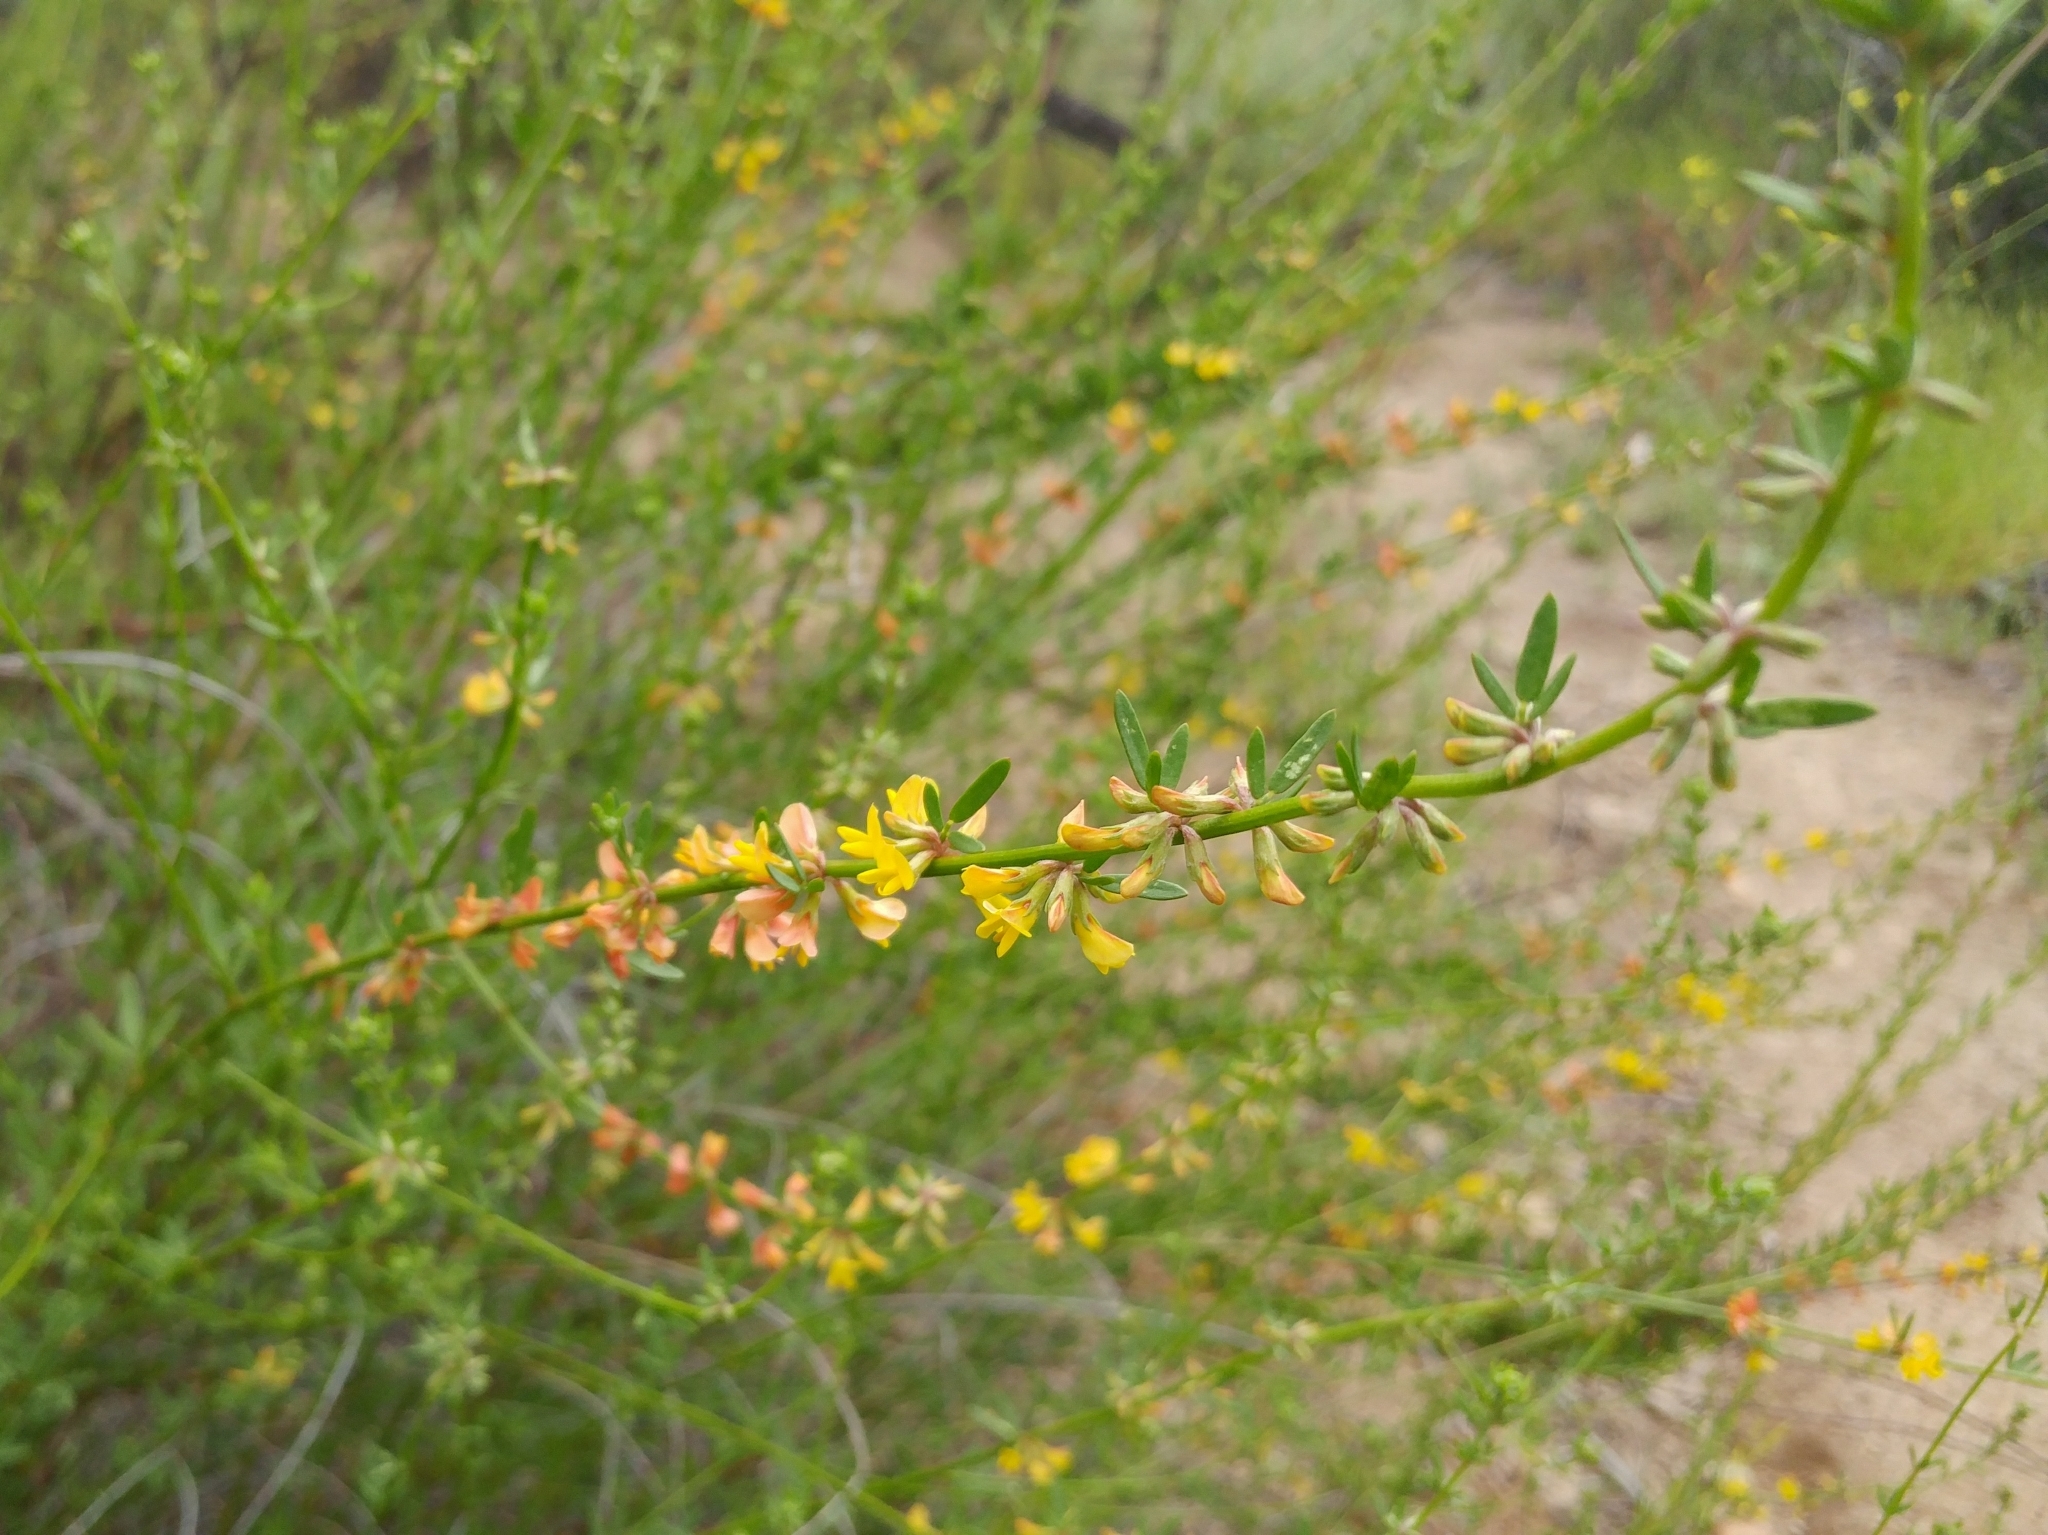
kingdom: Plantae
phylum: Tracheophyta
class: Magnoliopsida
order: Fabales
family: Fabaceae
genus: Acmispon
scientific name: Acmispon glaber
